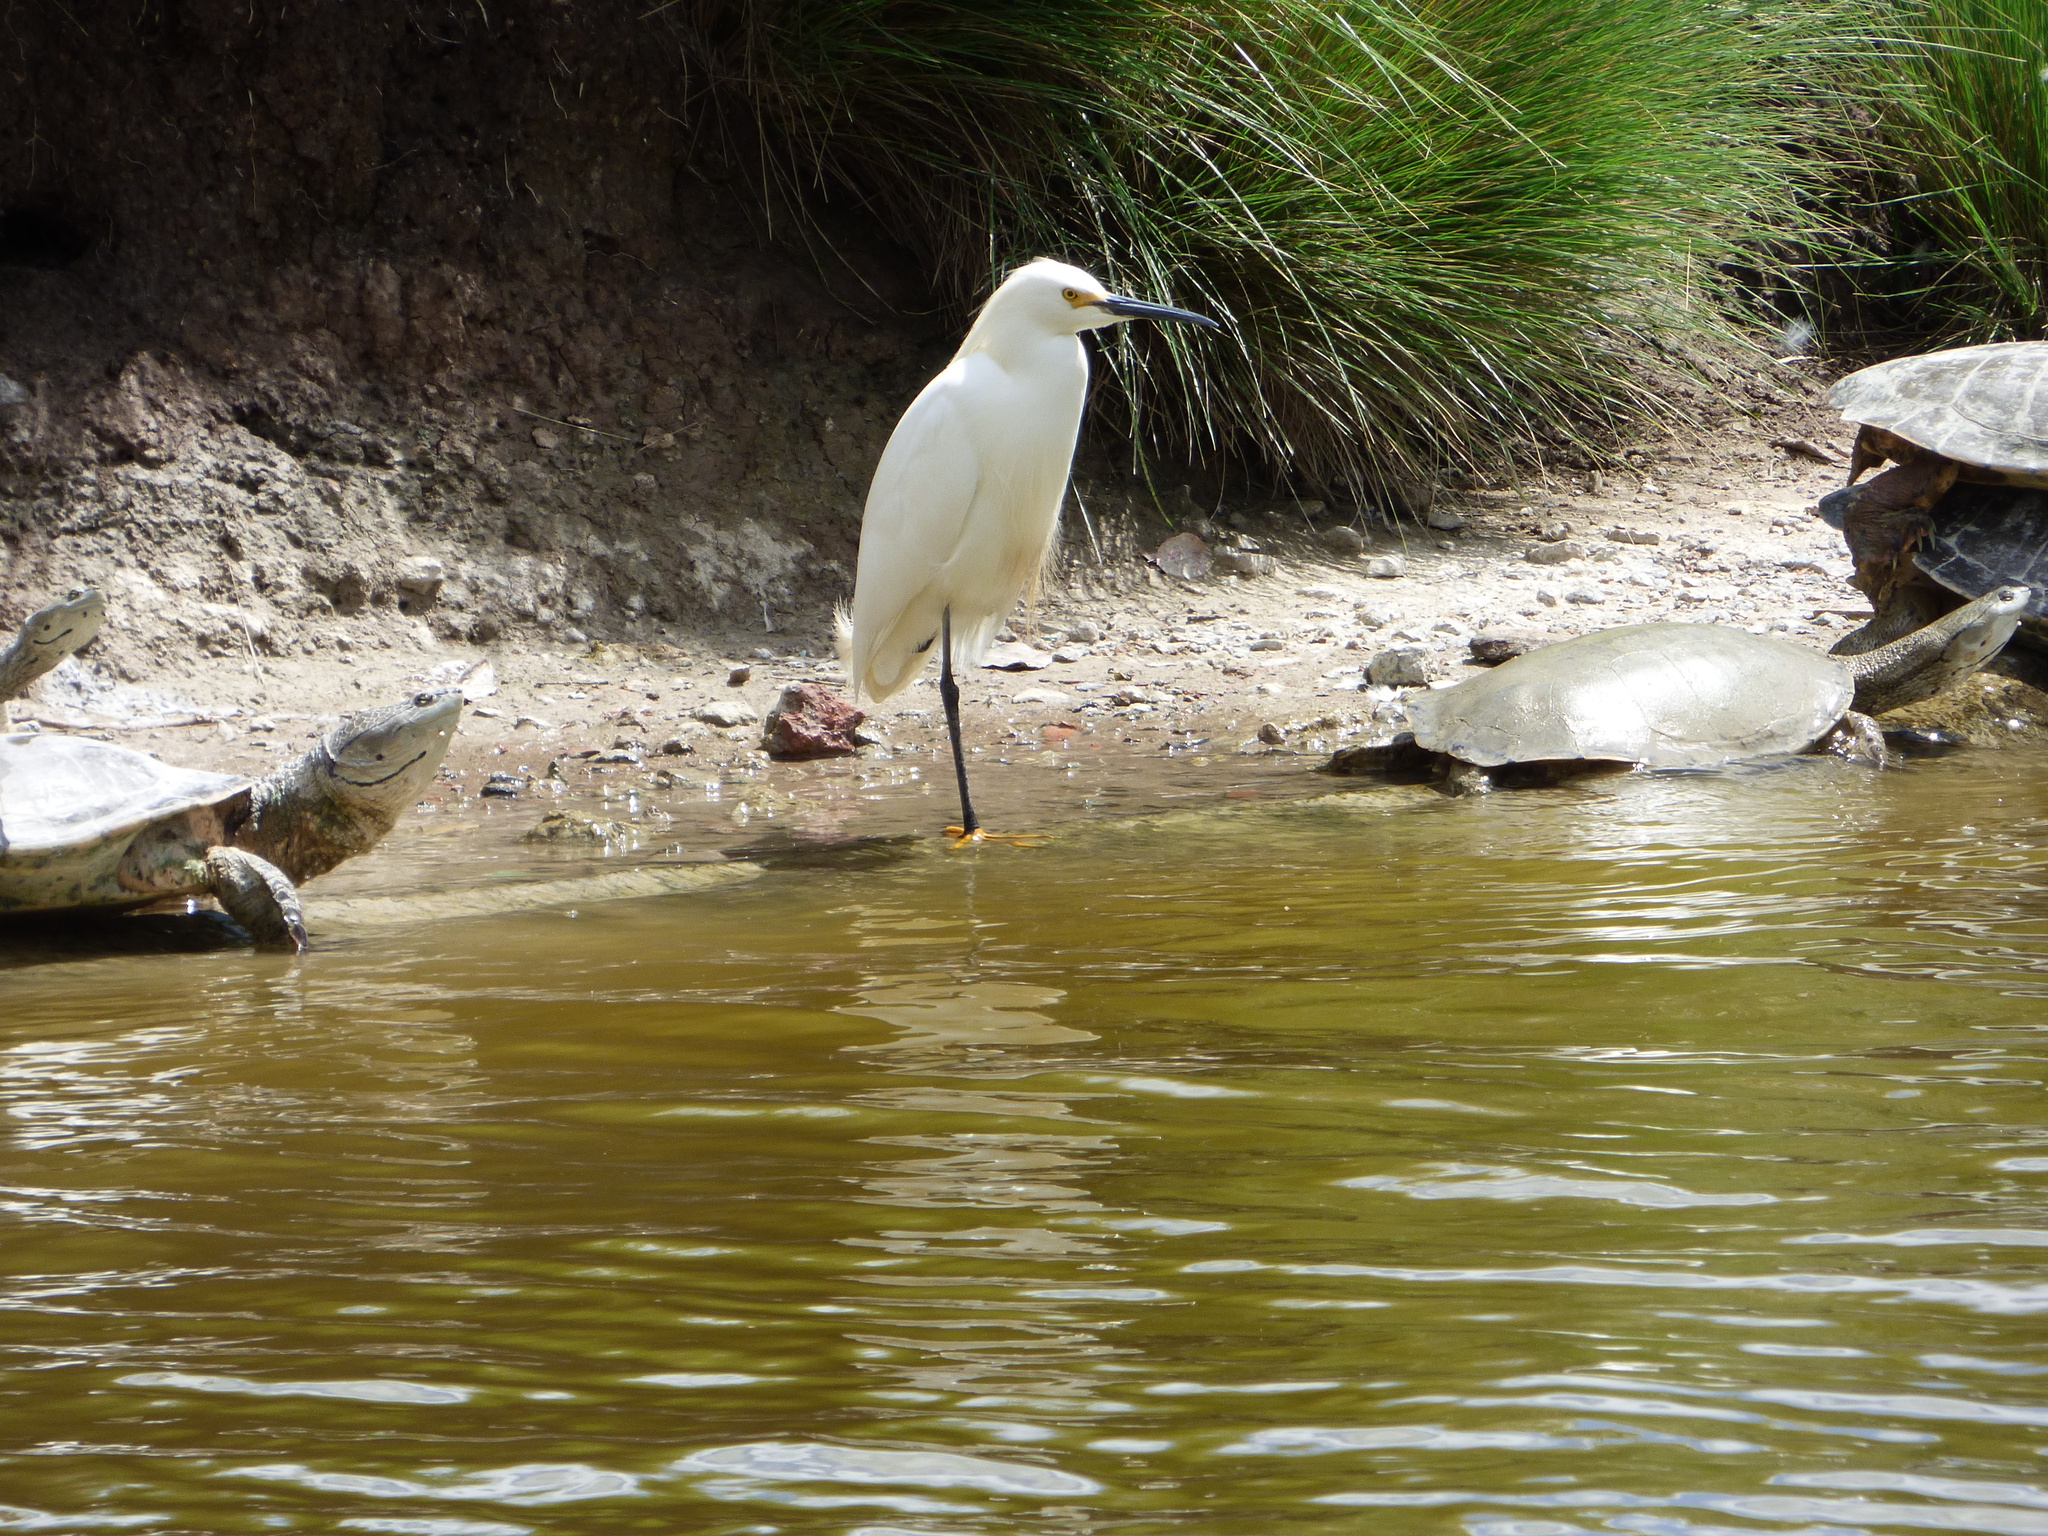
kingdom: Animalia
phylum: Chordata
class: Aves
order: Pelecaniformes
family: Ardeidae
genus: Egretta
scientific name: Egretta thula
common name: Snowy egret
